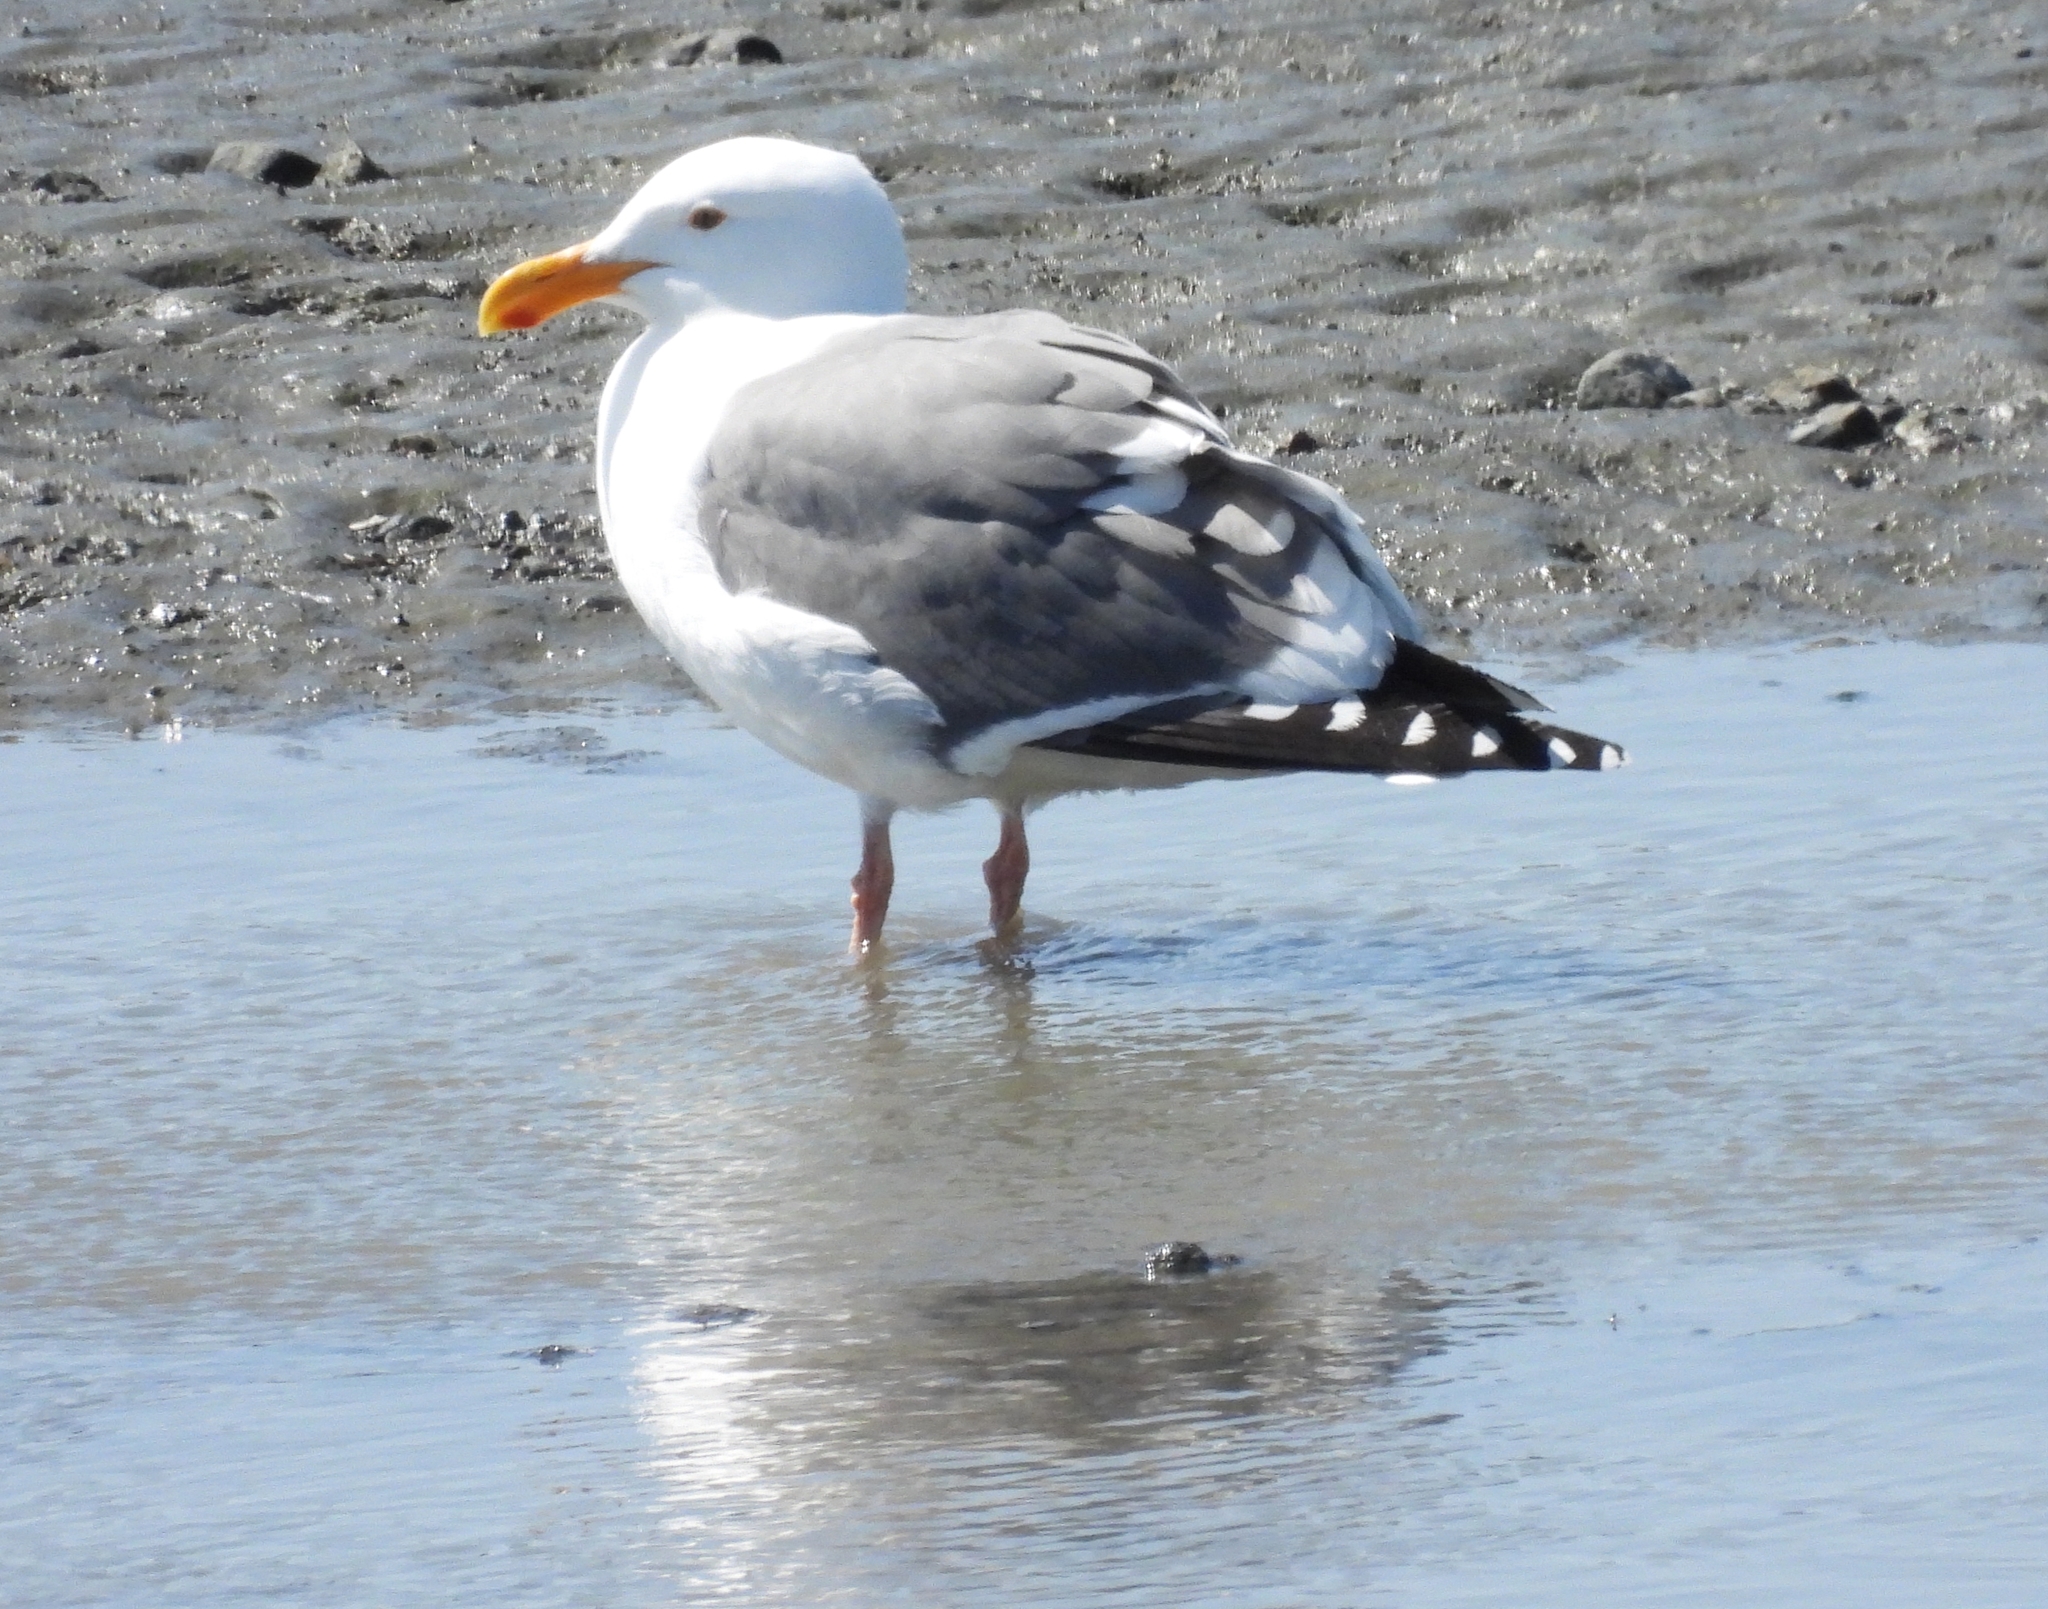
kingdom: Animalia
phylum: Chordata
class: Aves
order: Charadriiformes
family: Laridae
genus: Larus
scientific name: Larus occidentalis
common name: Western gull
